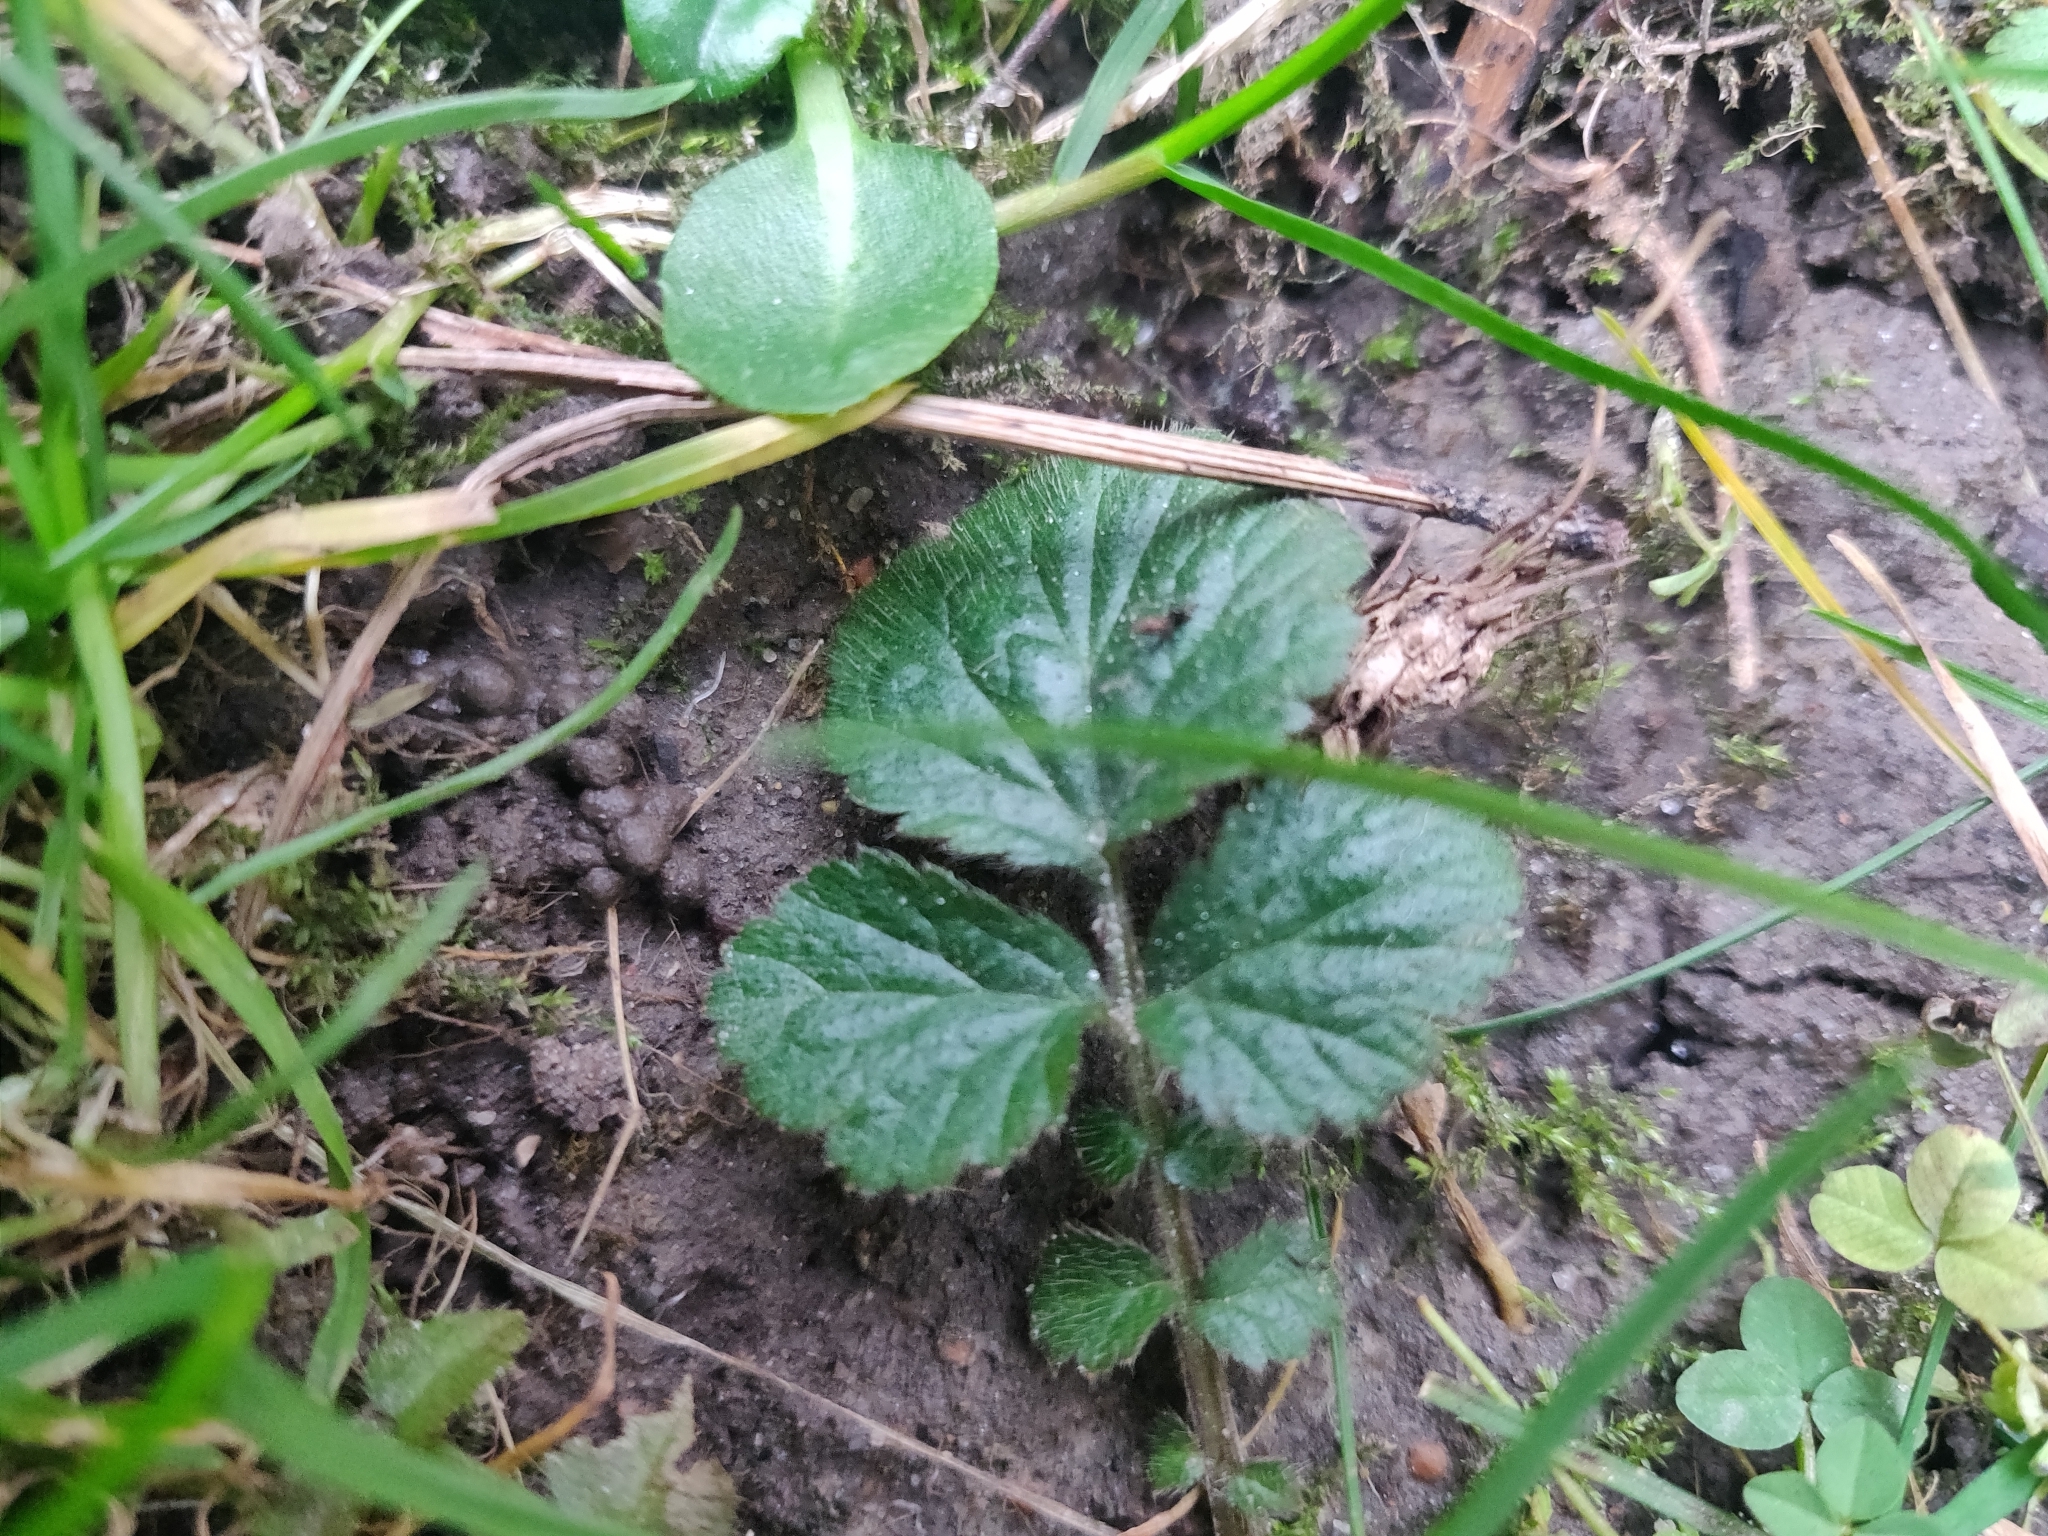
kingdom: Plantae
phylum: Tracheophyta
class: Magnoliopsida
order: Rosales
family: Rosaceae
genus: Geum
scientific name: Geum urbanum
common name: Wood avens
